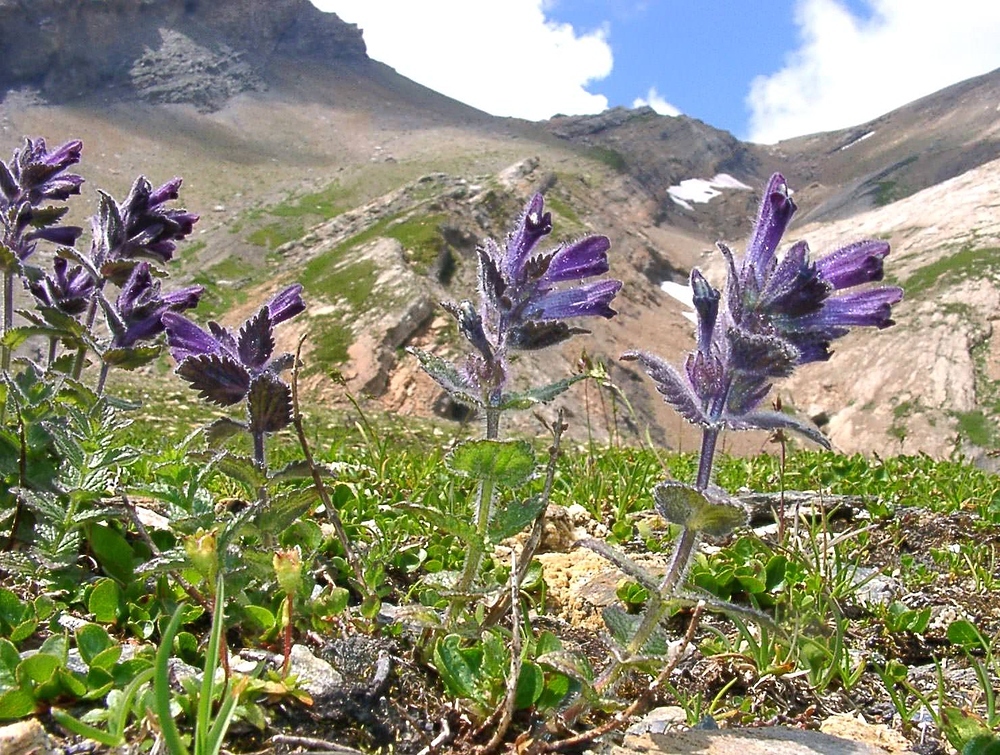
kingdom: Plantae
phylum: Tracheophyta
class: Magnoliopsida
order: Lamiales
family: Orobanchaceae
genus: Bartsia
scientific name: Bartsia alpina
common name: Alpine bartsia
